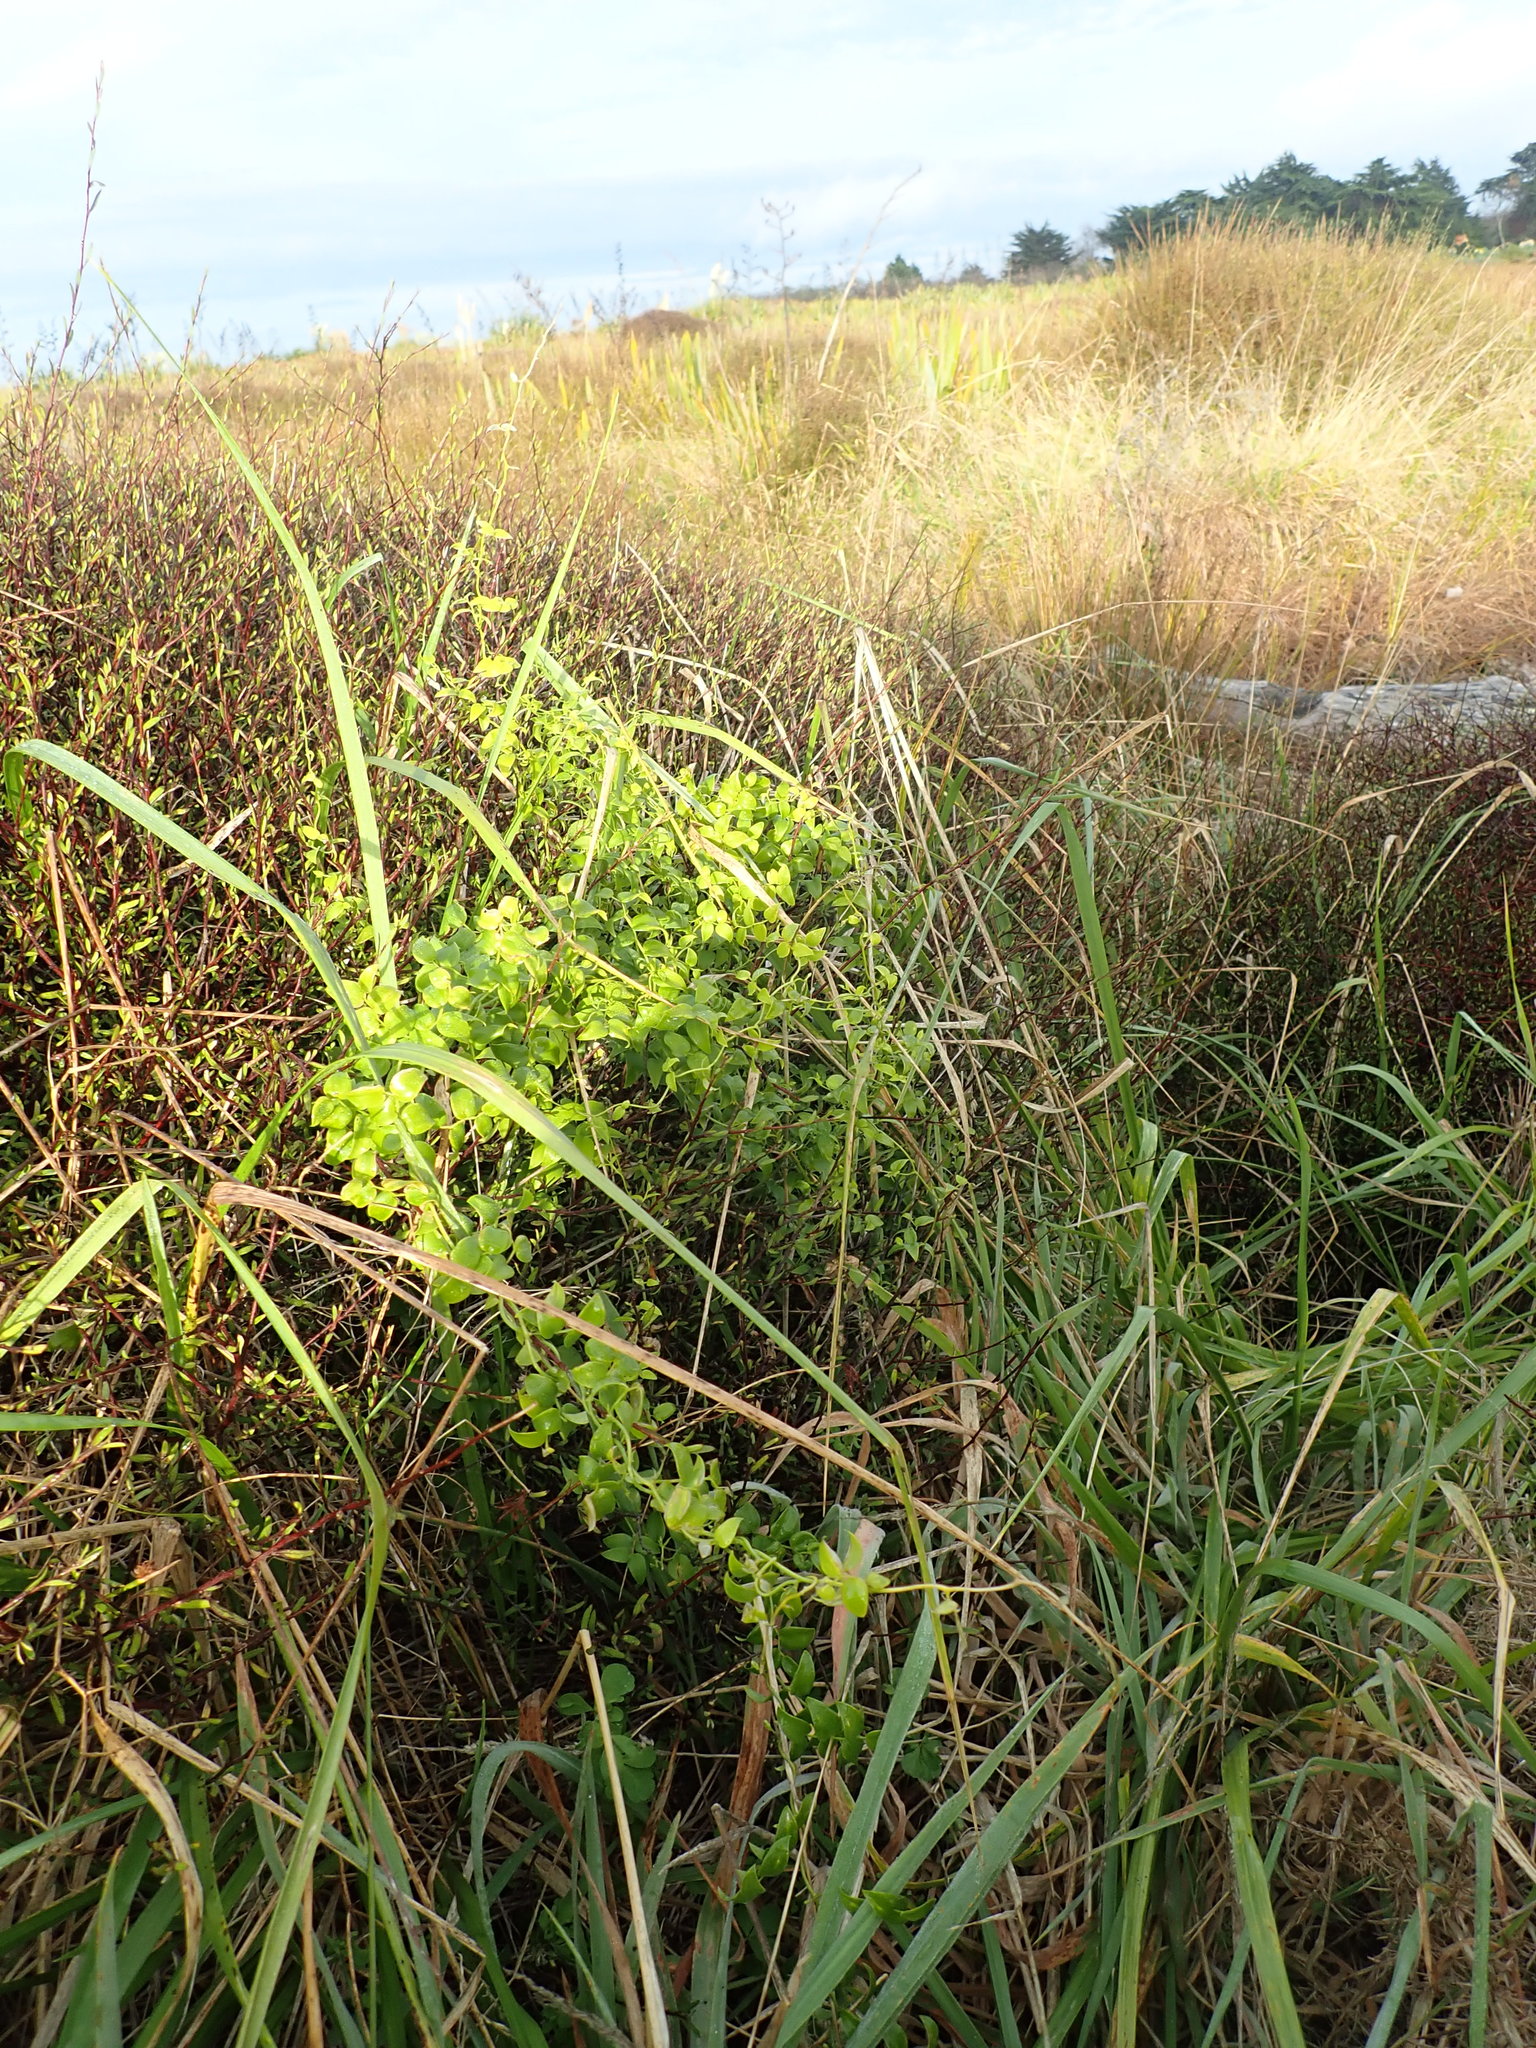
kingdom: Plantae
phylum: Tracheophyta
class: Liliopsida
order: Asparagales
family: Asparagaceae
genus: Asparagus
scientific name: Asparagus asparagoides
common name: African asparagus fern
